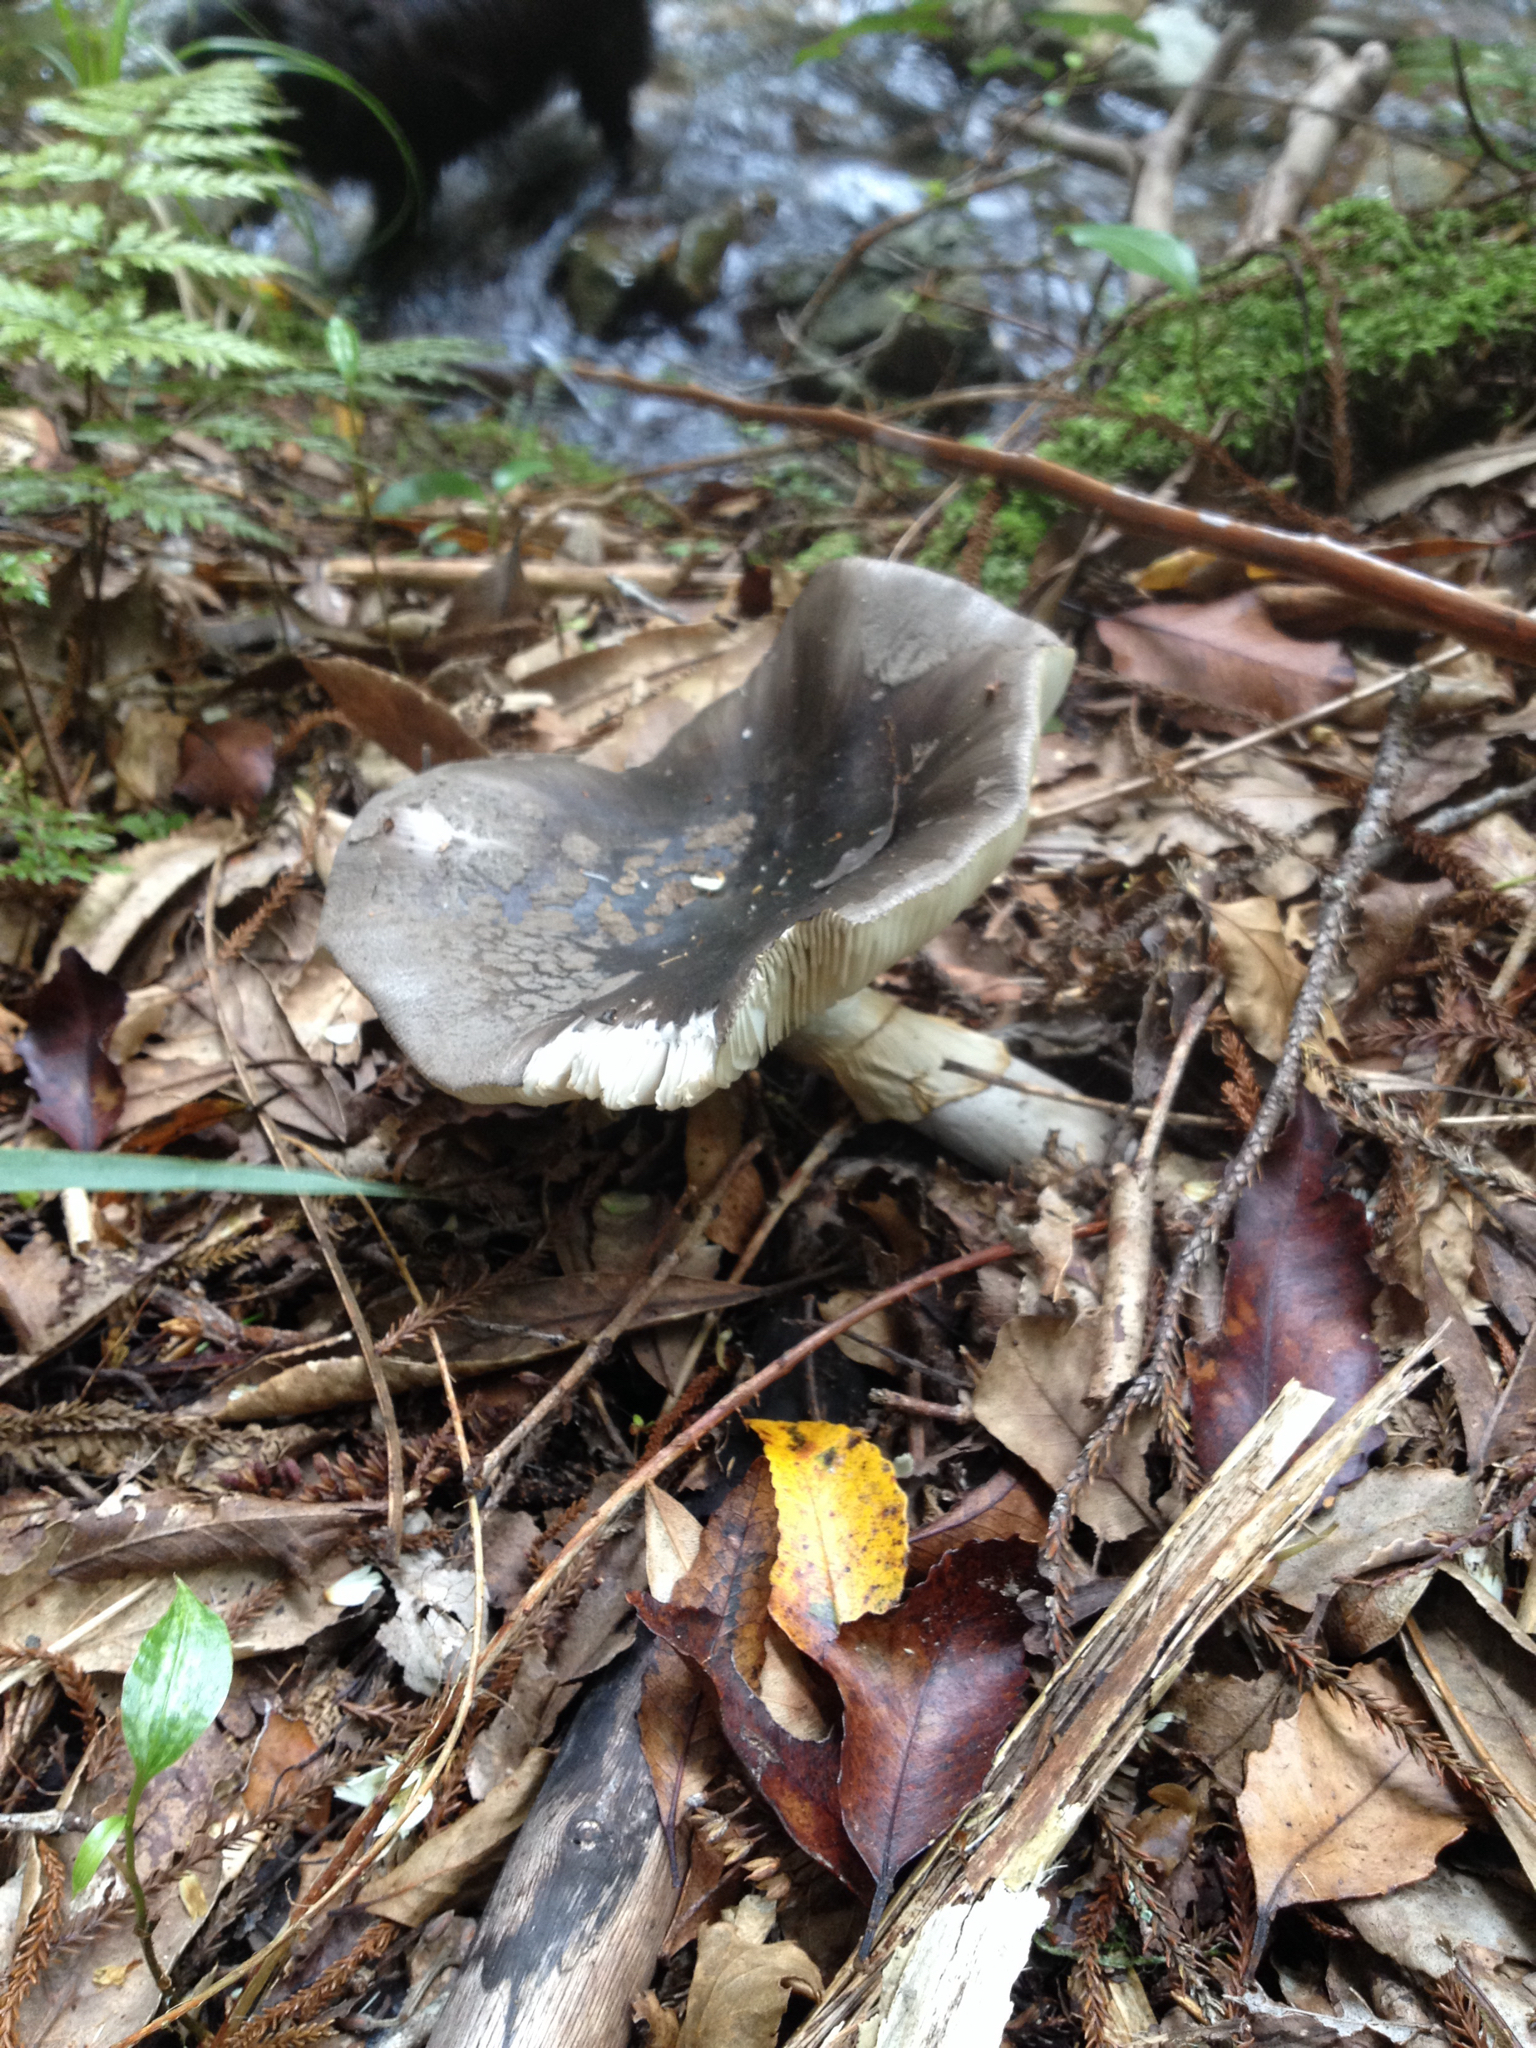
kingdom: Fungi
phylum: Basidiomycota
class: Agaricomycetes
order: Agaricales
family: Amanitaceae
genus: Amanita
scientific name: Amanita nothofagi
